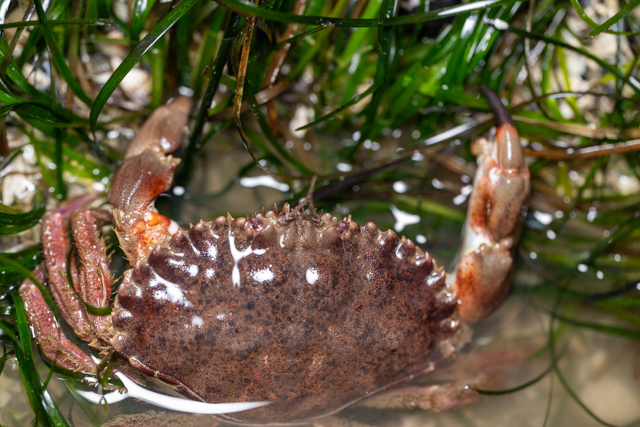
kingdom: Animalia
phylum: Arthropoda
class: Malacostraca
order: Decapoda
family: Cancridae
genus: Romaleon
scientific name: Romaleon antennarium
